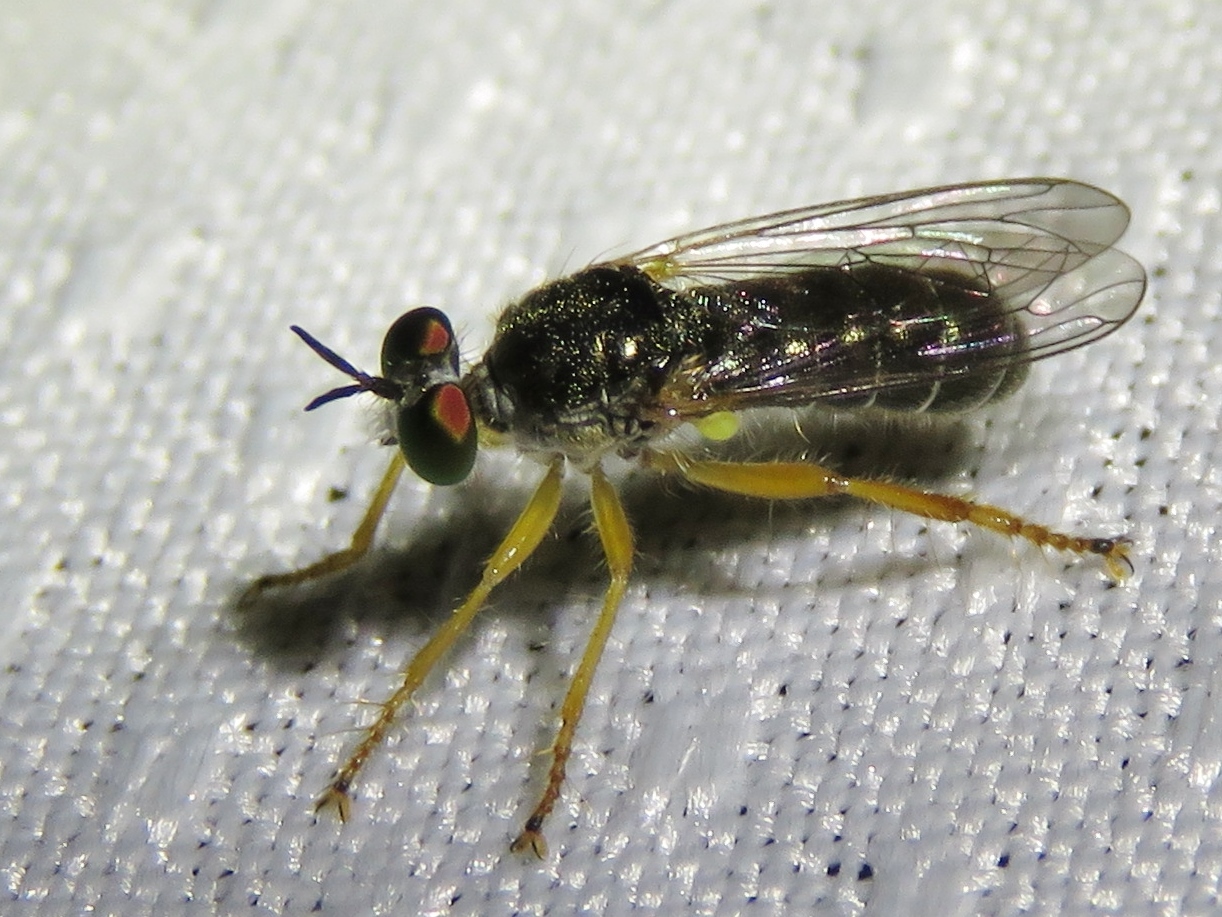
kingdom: Animalia
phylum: Arthropoda
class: Insecta
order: Diptera
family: Asilidae
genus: Atomosia
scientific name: Atomosia sayii
